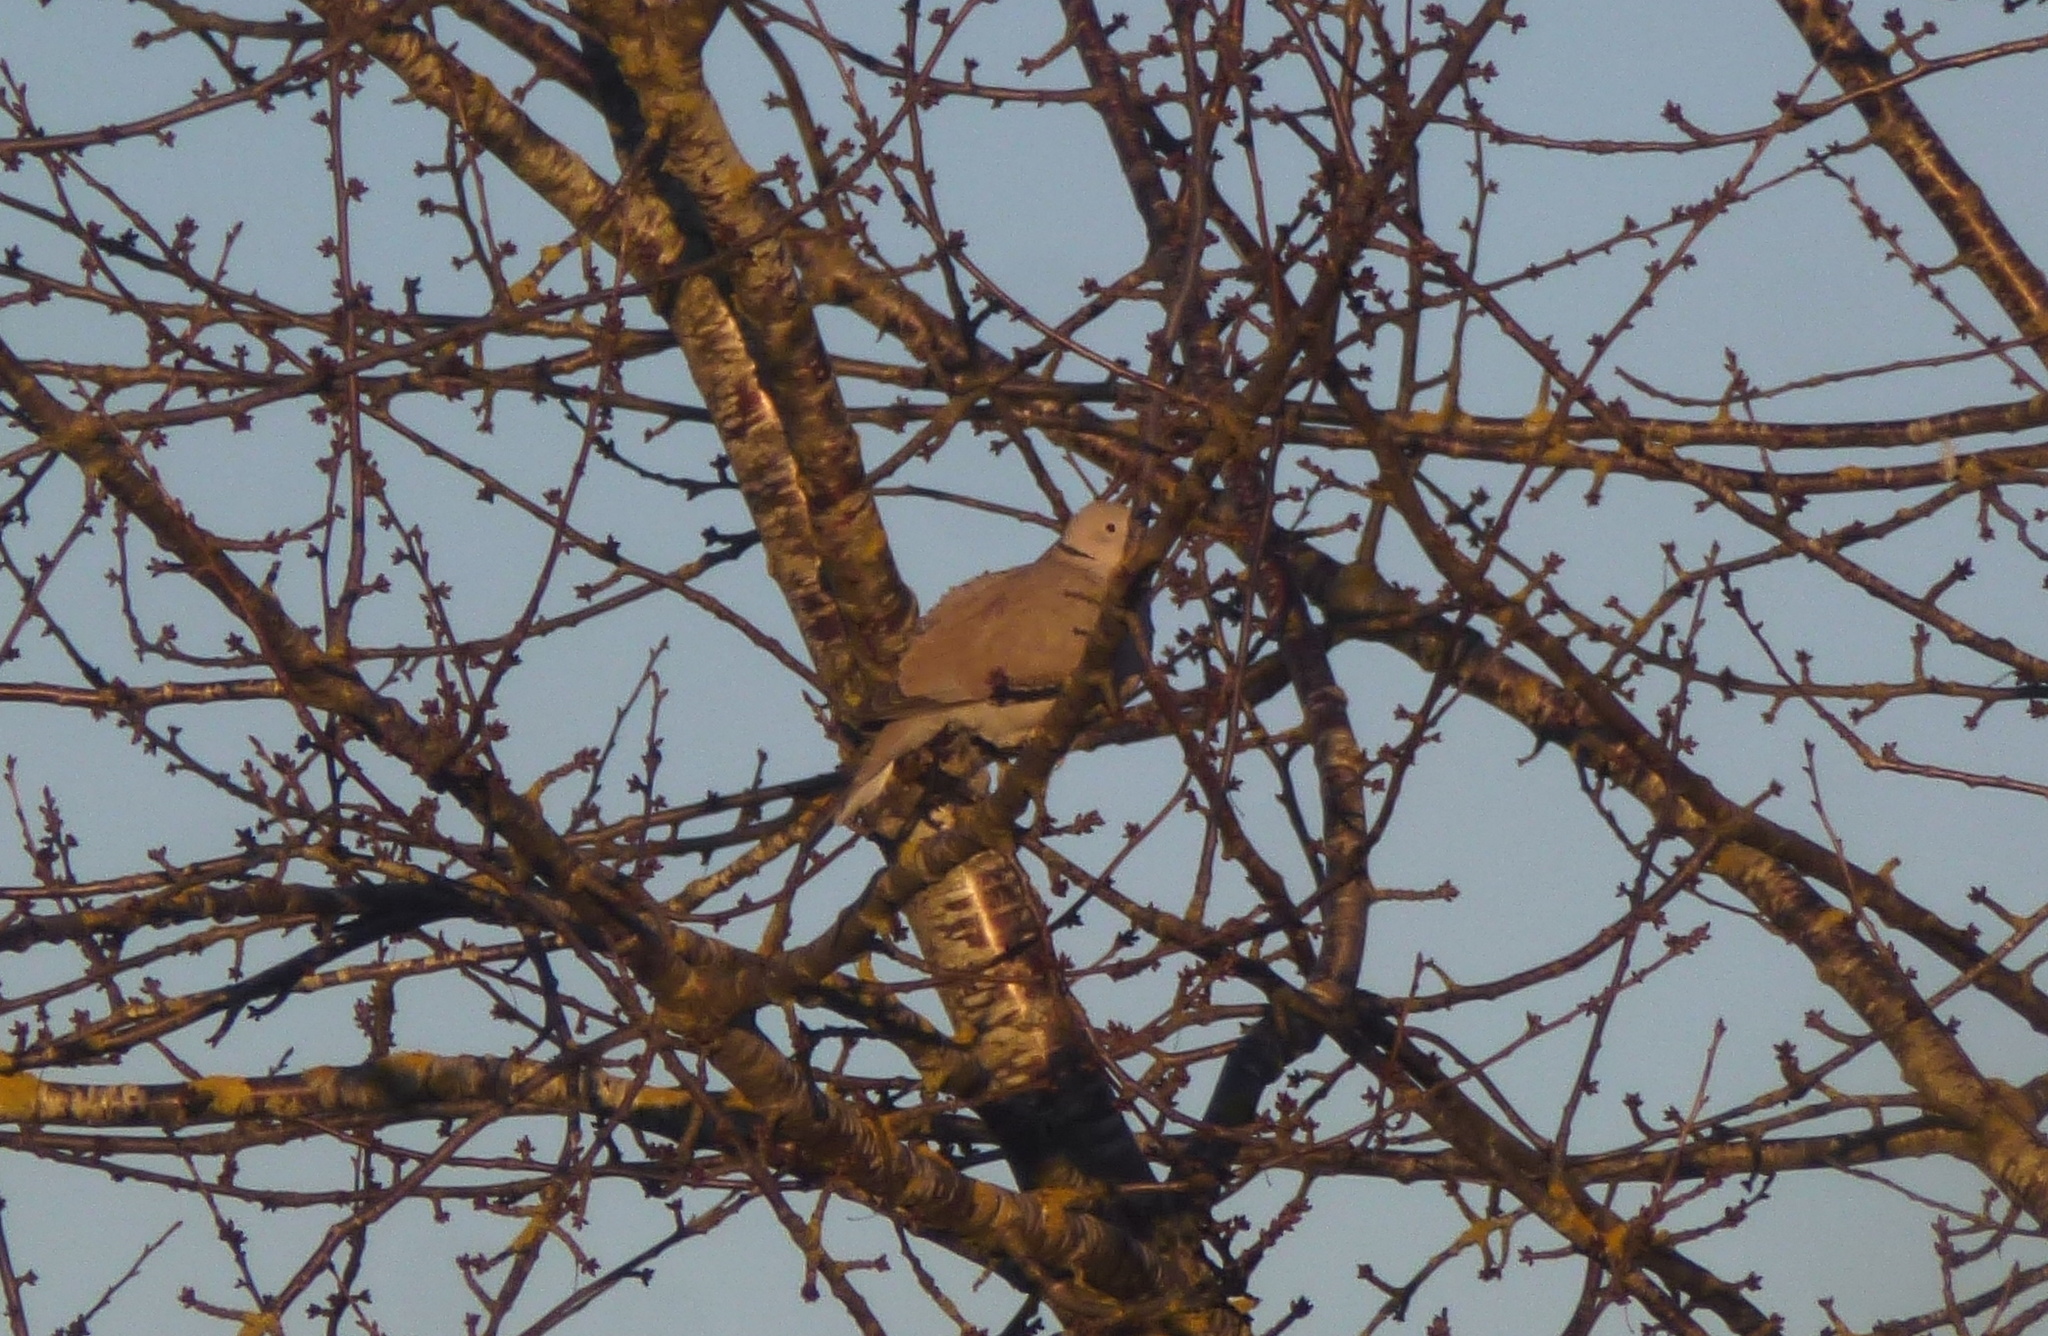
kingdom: Animalia
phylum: Chordata
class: Aves
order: Columbiformes
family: Columbidae
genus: Streptopelia
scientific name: Streptopelia decaocto
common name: Eurasian collared dove
